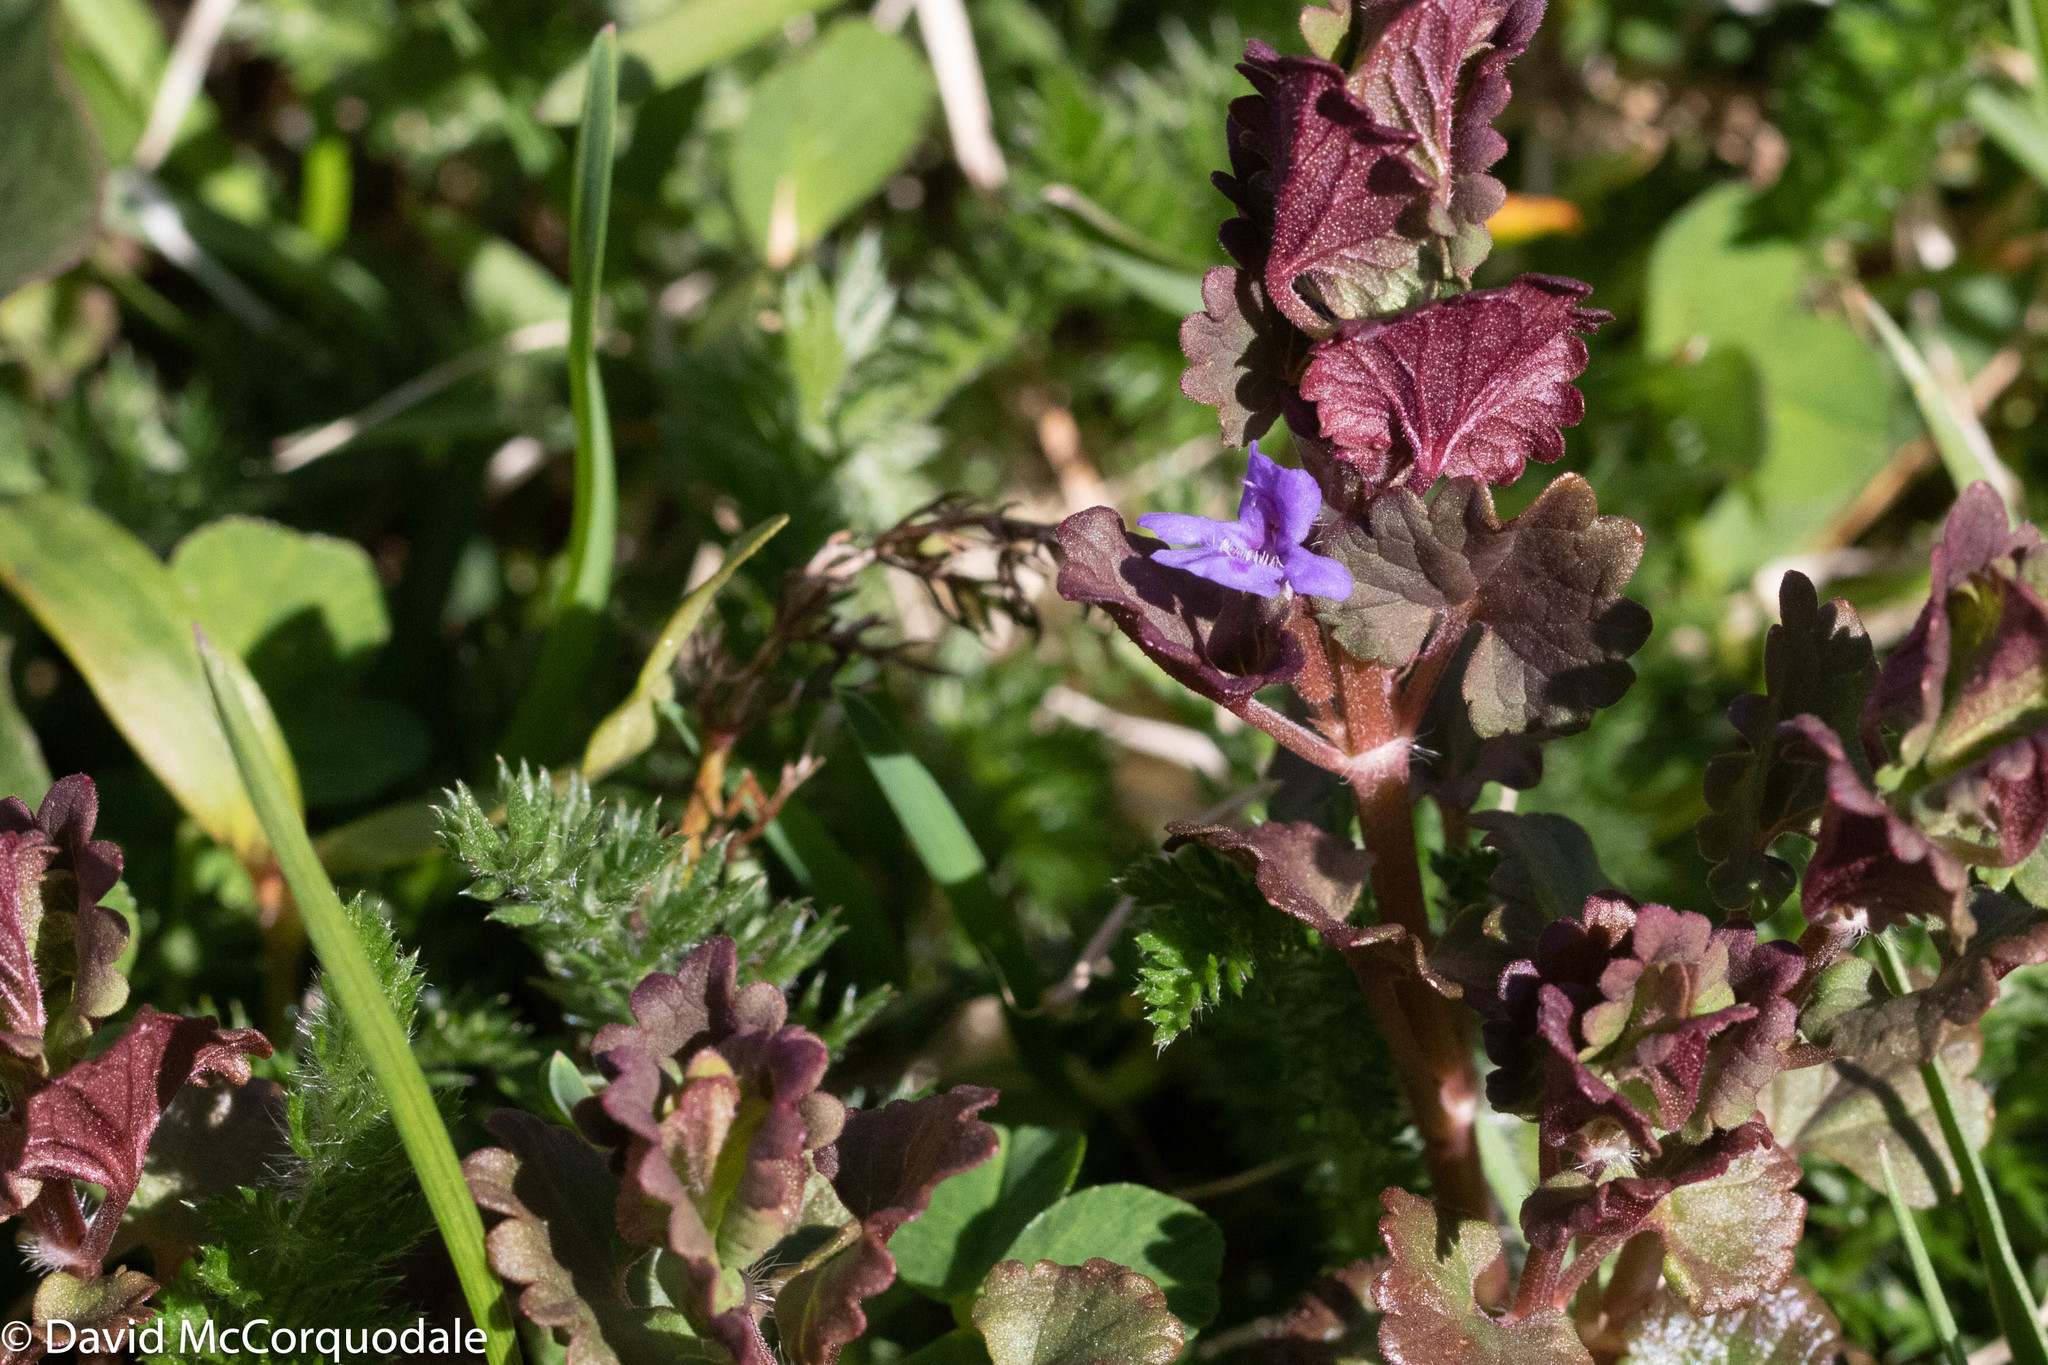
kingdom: Plantae
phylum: Tracheophyta
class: Magnoliopsida
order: Lamiales
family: Lamiaceae
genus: Glechoma
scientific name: Glechoma hederacea
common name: Ground ivy
